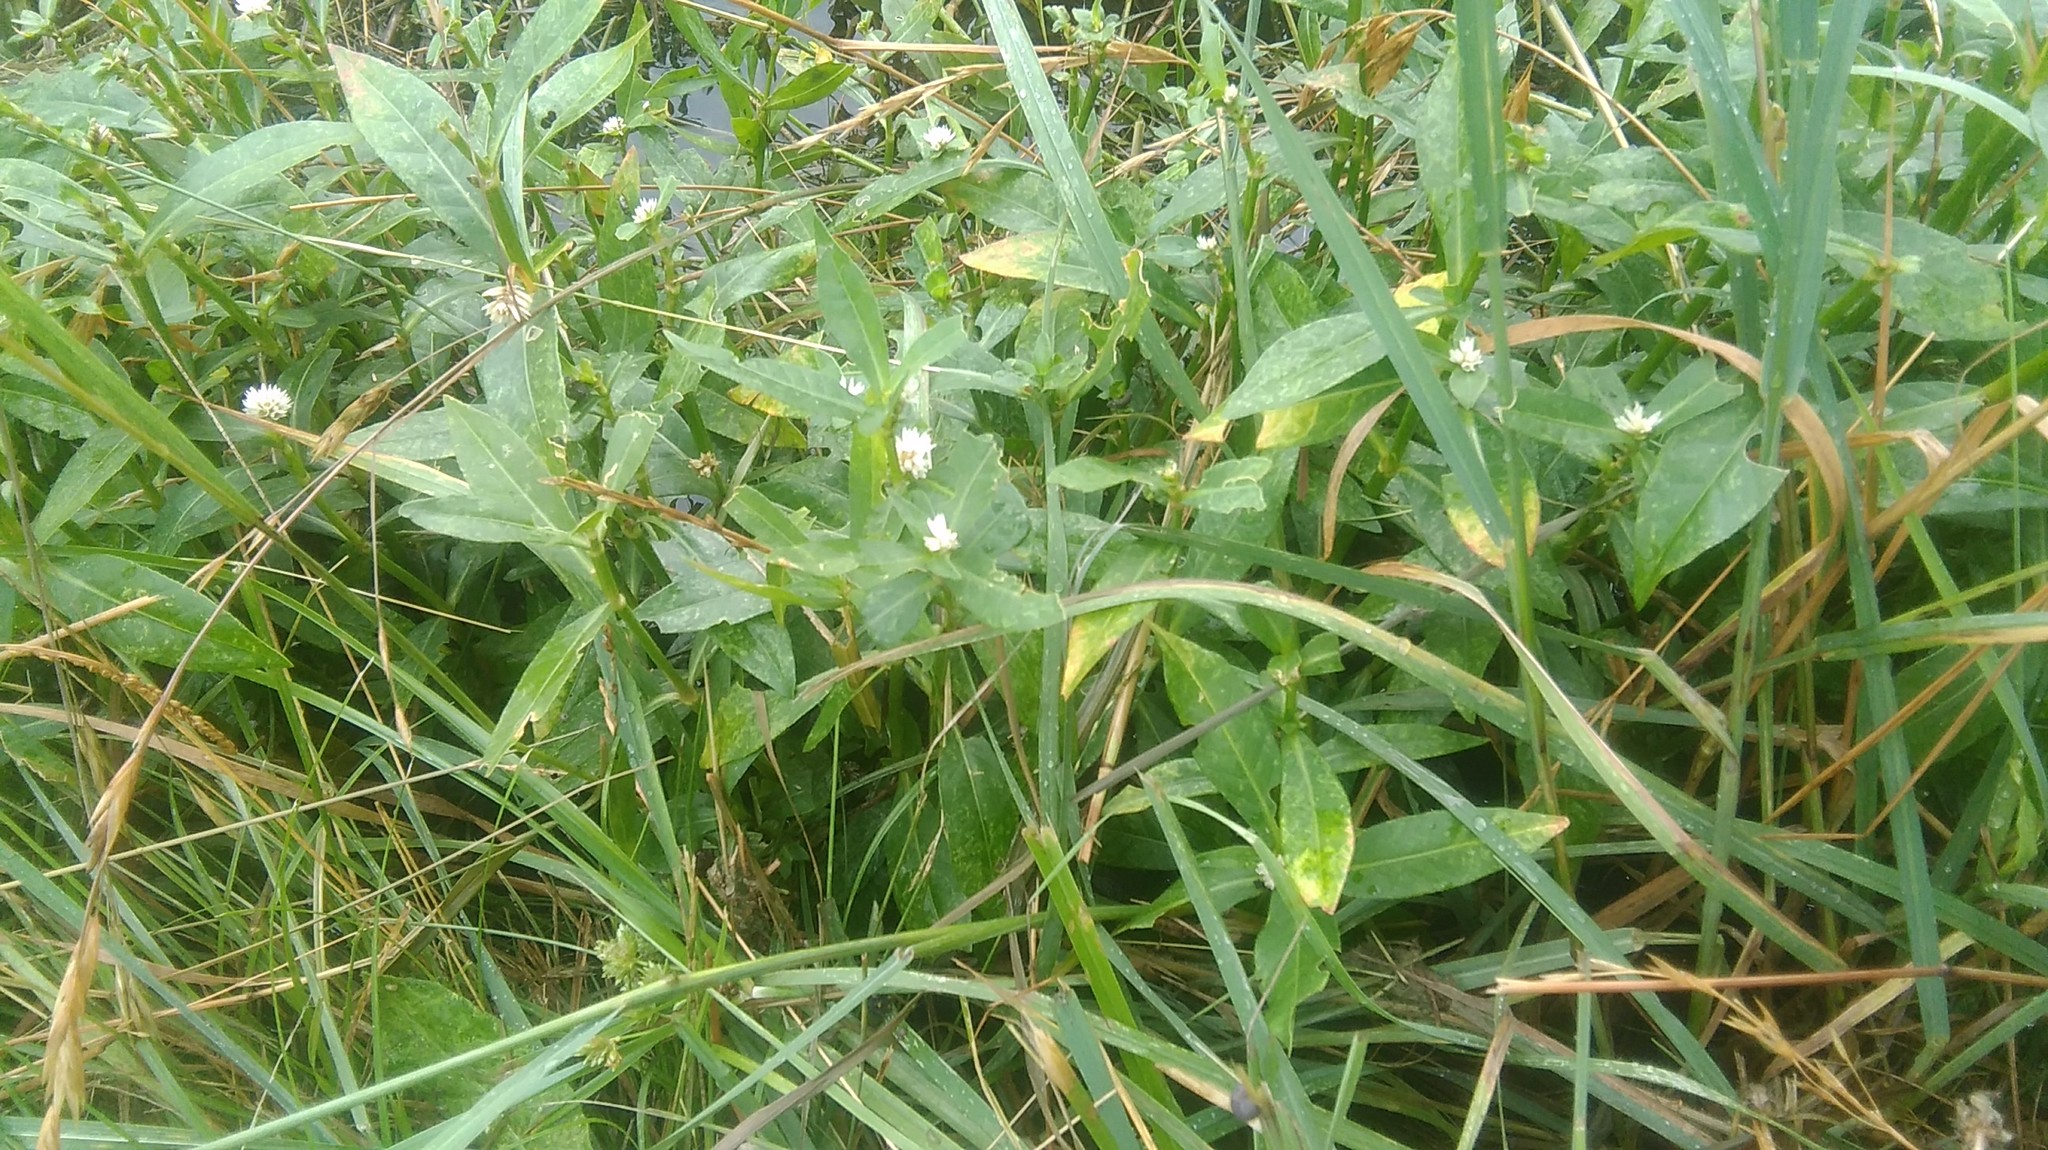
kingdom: Plantae
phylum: Tracheophyta
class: Magnoliopsida
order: Caryophyllales
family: Amaranthaceae
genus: Alternanthera
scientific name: Alternanthera philoxeroides
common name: Alligatorweed
